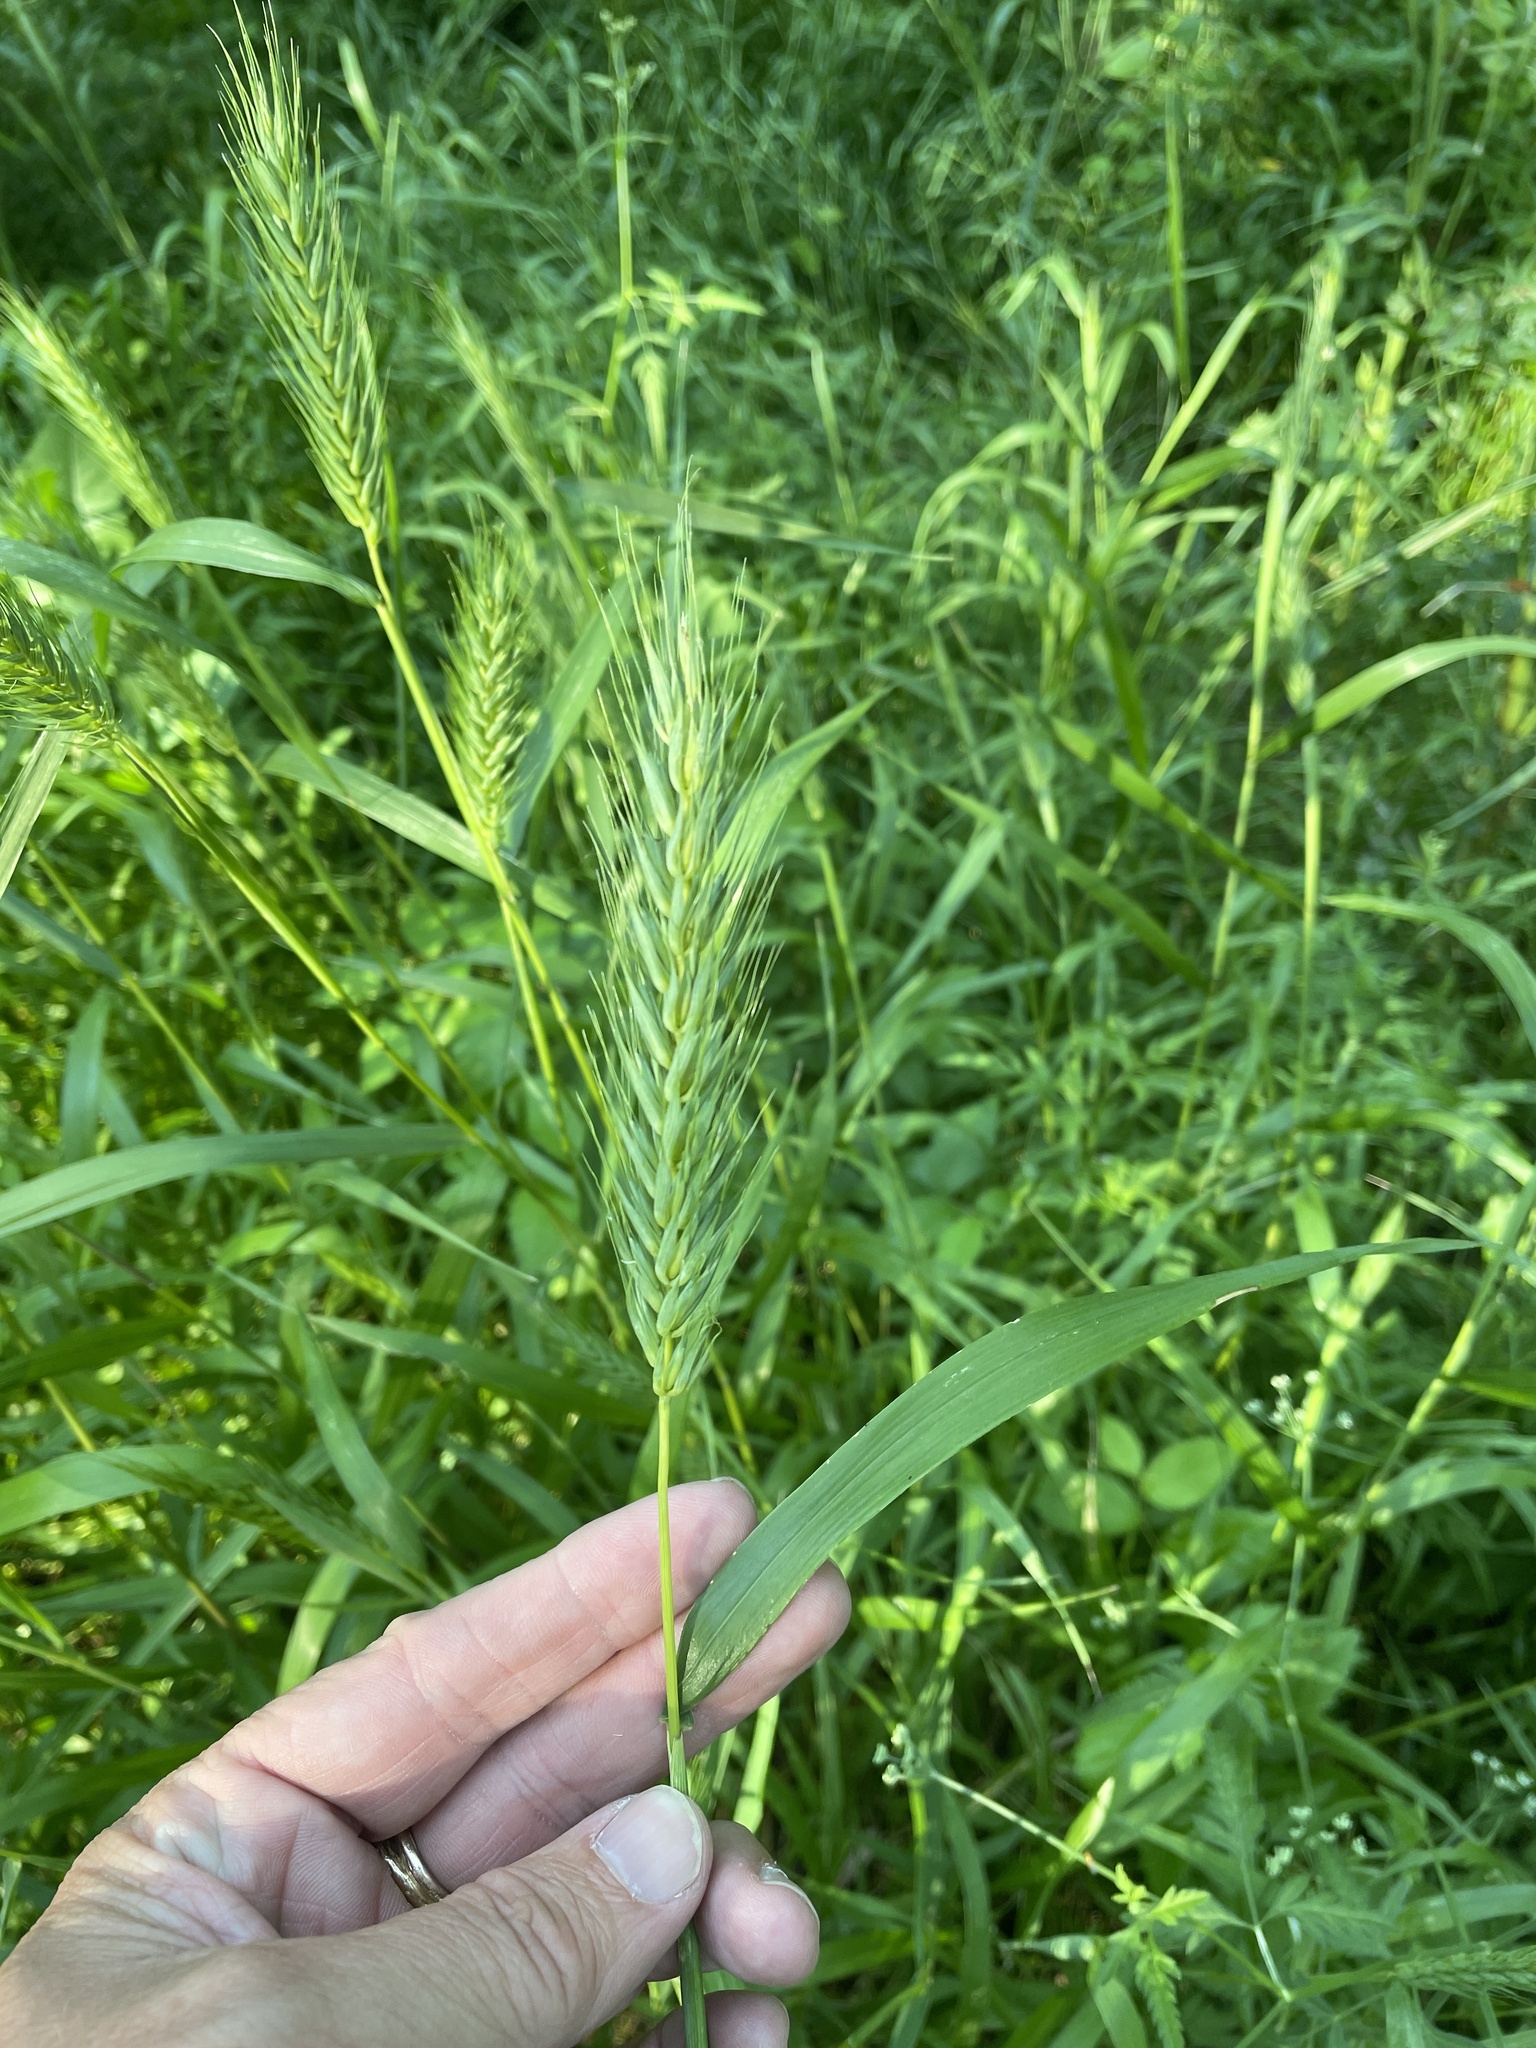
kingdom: Plantae
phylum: Tracheophyta
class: Liliopsida
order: Poales
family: Poaceae
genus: Elymus
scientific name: Elymus virginicus
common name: Common eastern wildrye
